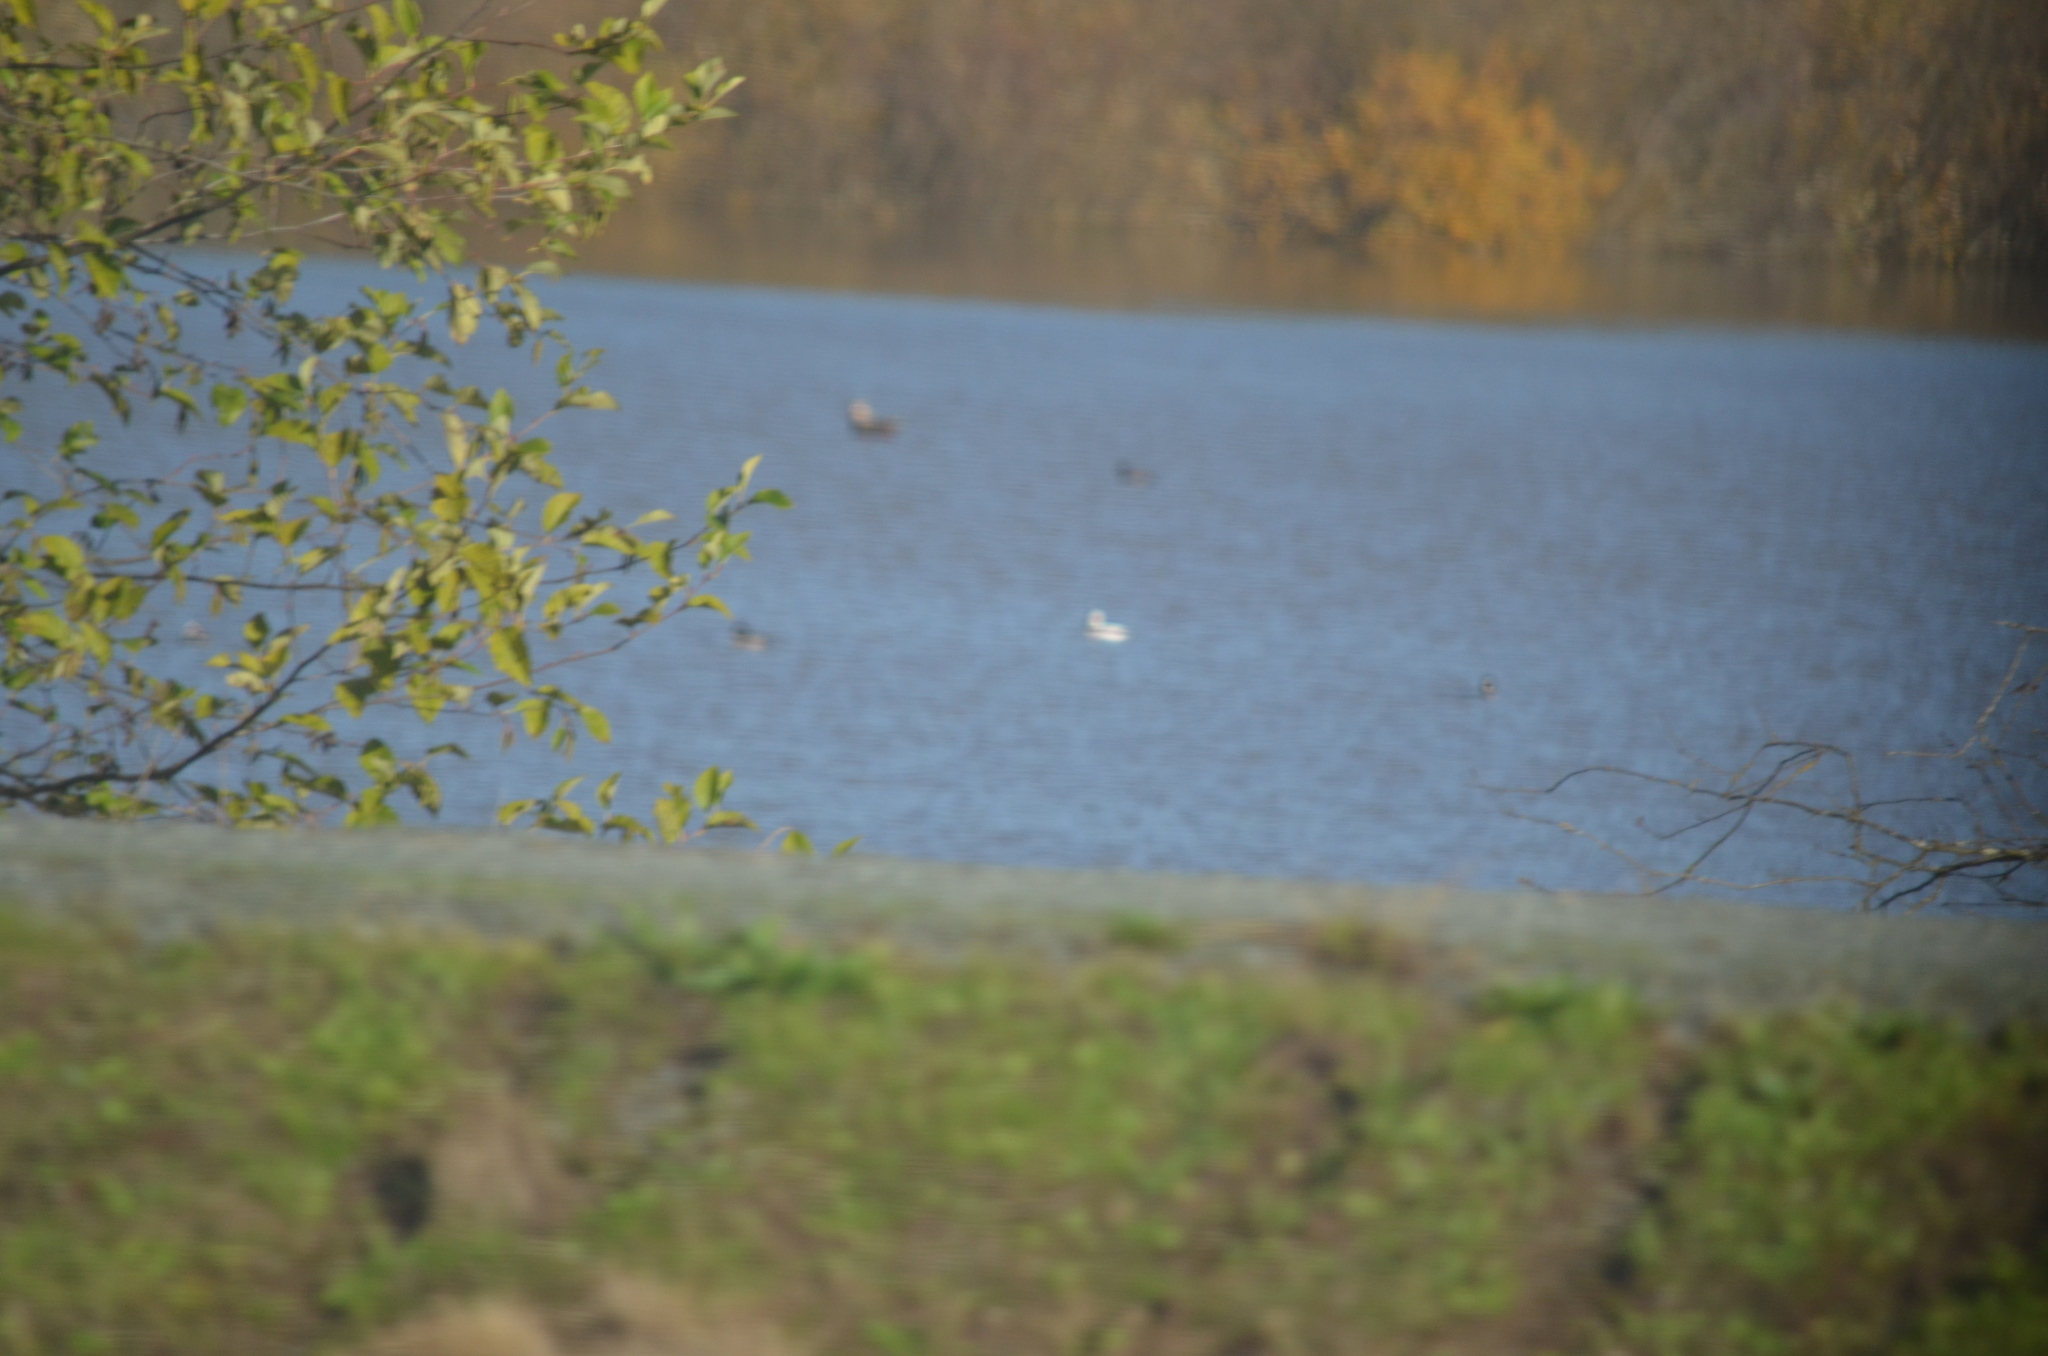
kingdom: Animalia
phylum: Chordata
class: Aves
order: Anseriformes
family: Anatidae
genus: Bucephala
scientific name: Bucephala albeola
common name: Bufflehead
